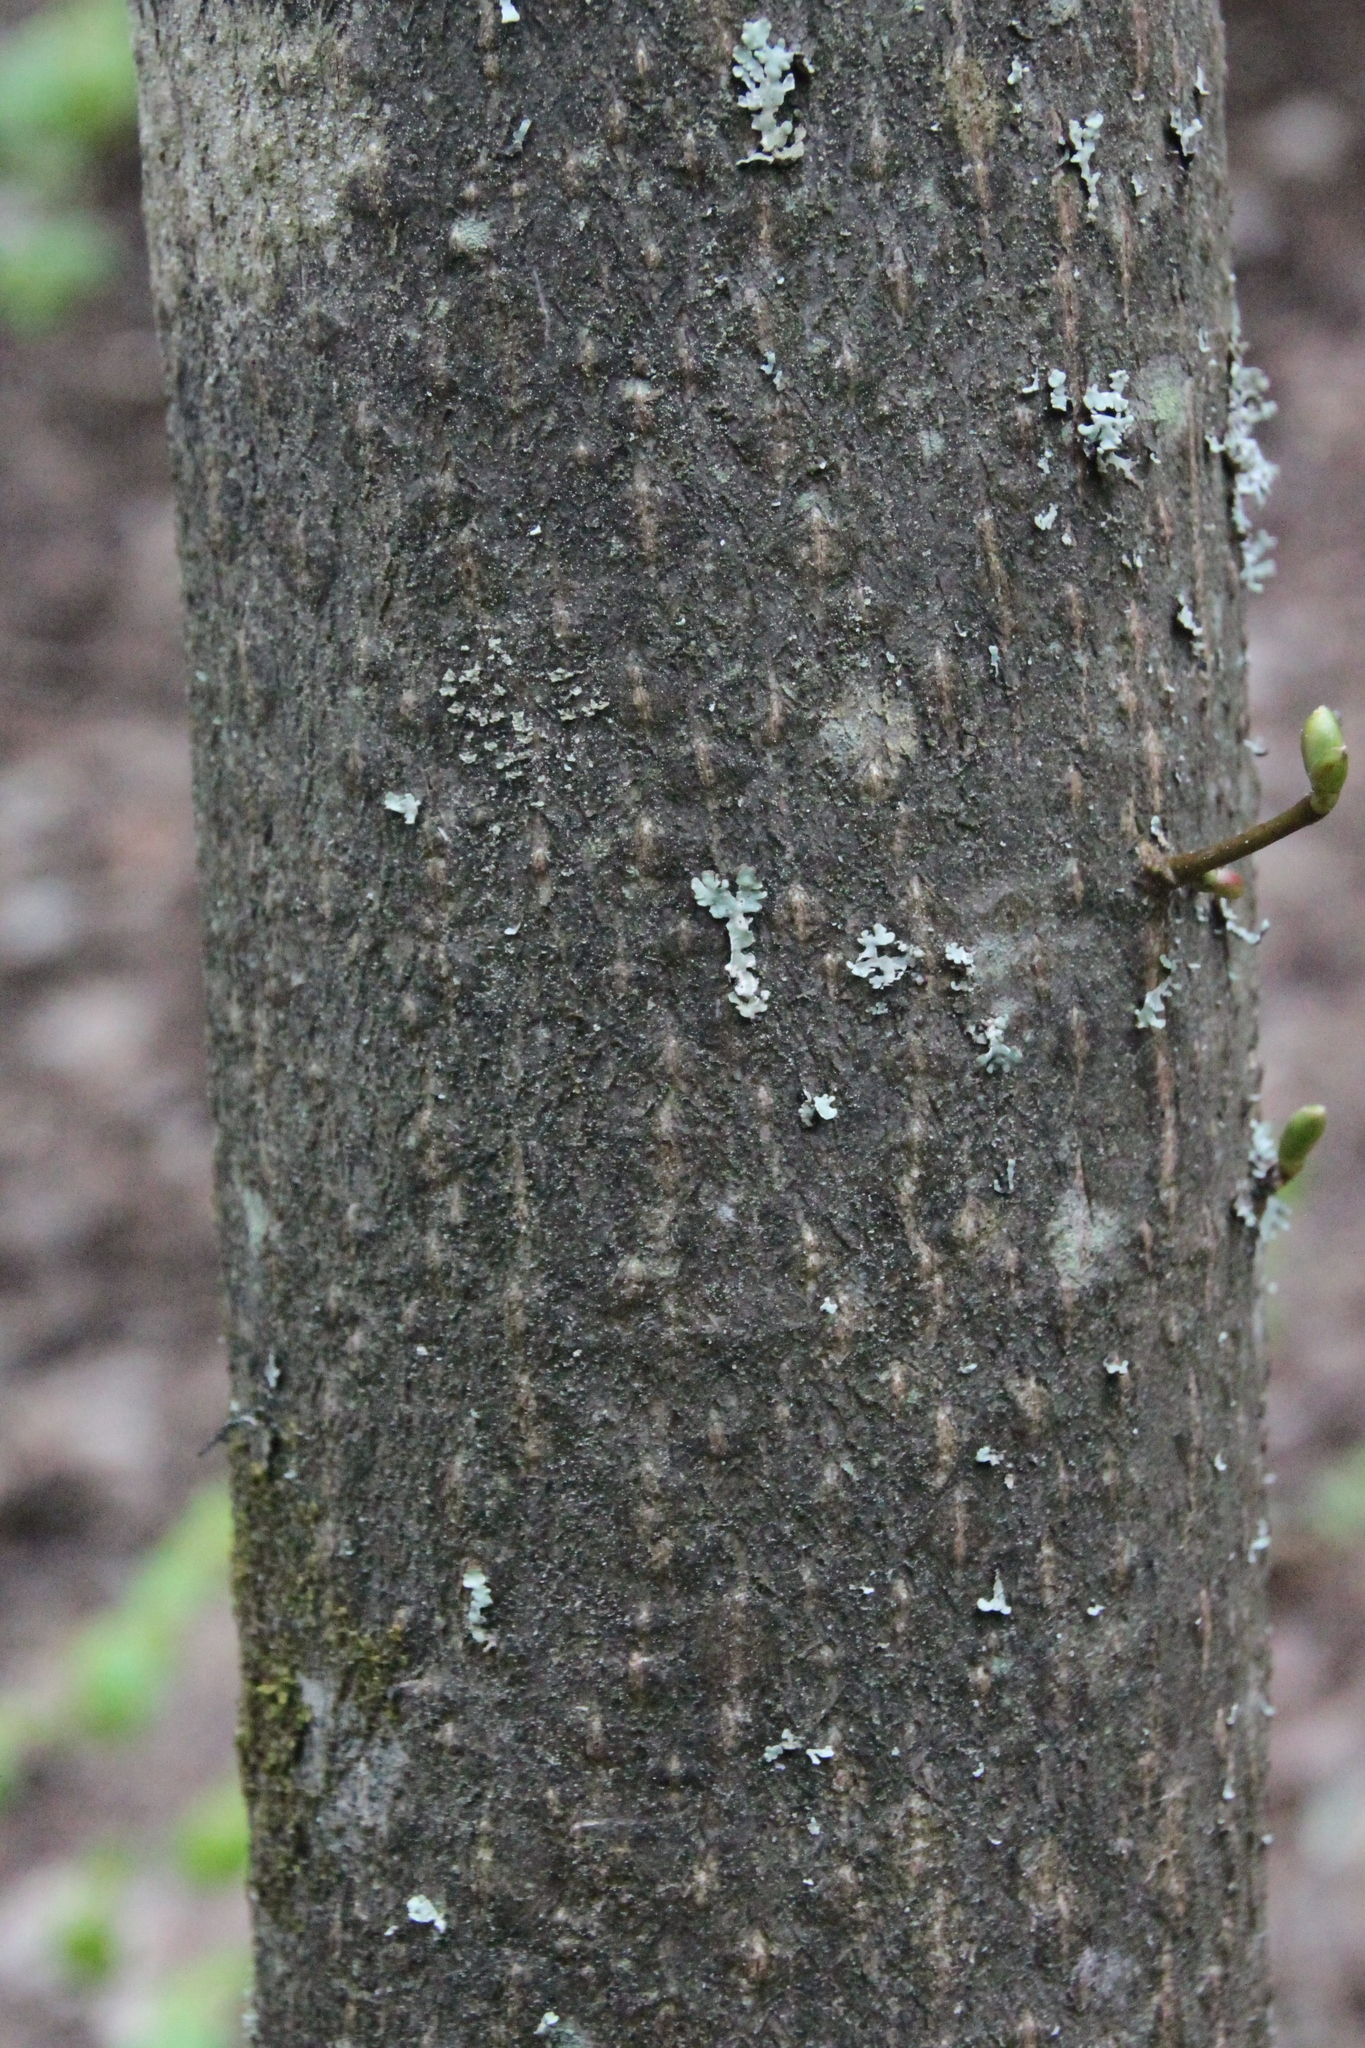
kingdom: Plantae
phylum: Tracheophyta
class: Magnoliopsida
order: Malvales
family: Malvaceae
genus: Tilia
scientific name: Tilia cordata
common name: Small-leaved lime
